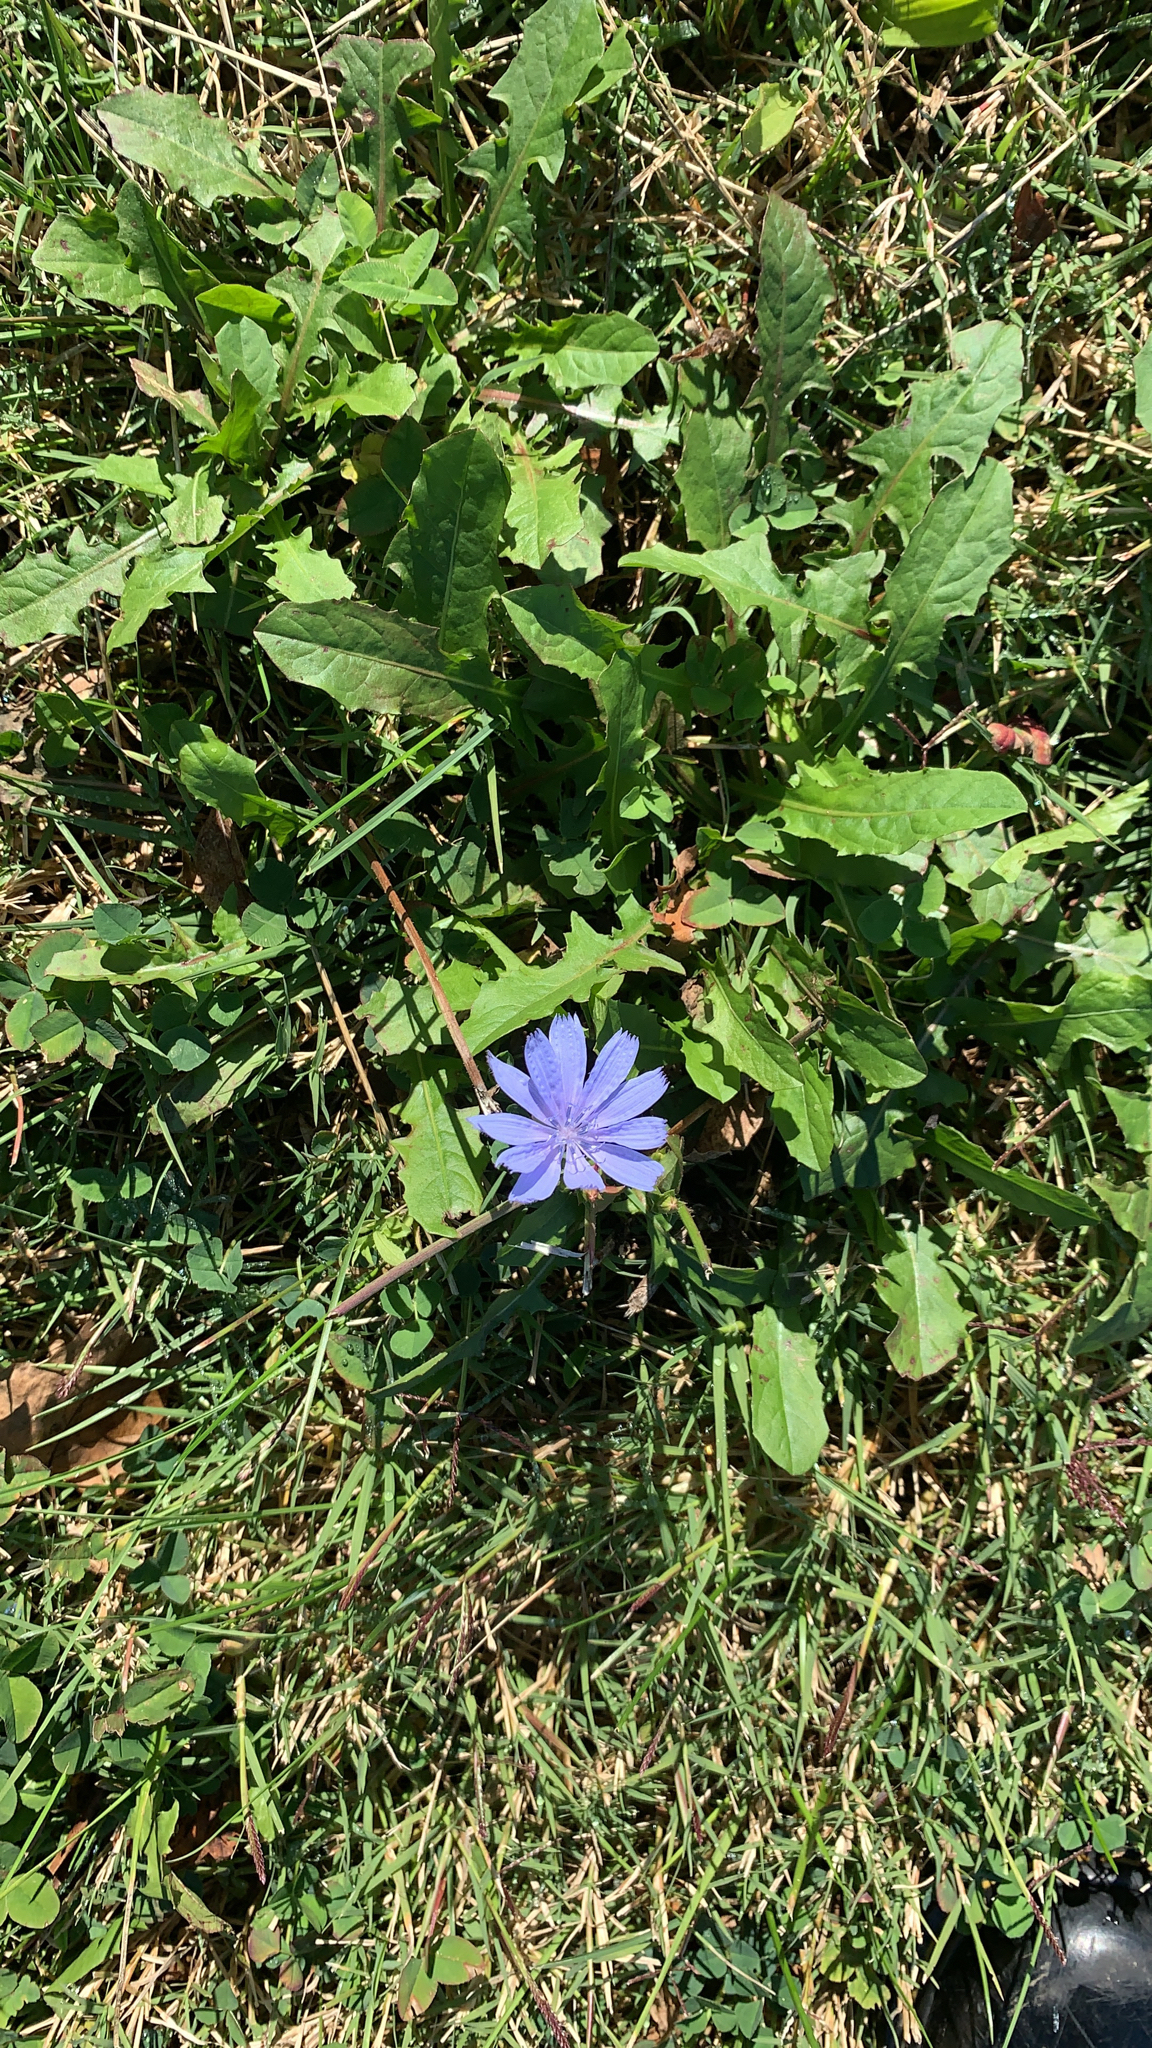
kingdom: Plantae
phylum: Tracheophyta
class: Magnoliopsida
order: Asterales
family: Asteraceae
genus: Cichorium
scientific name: Cichorium intybus
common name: Chicory
